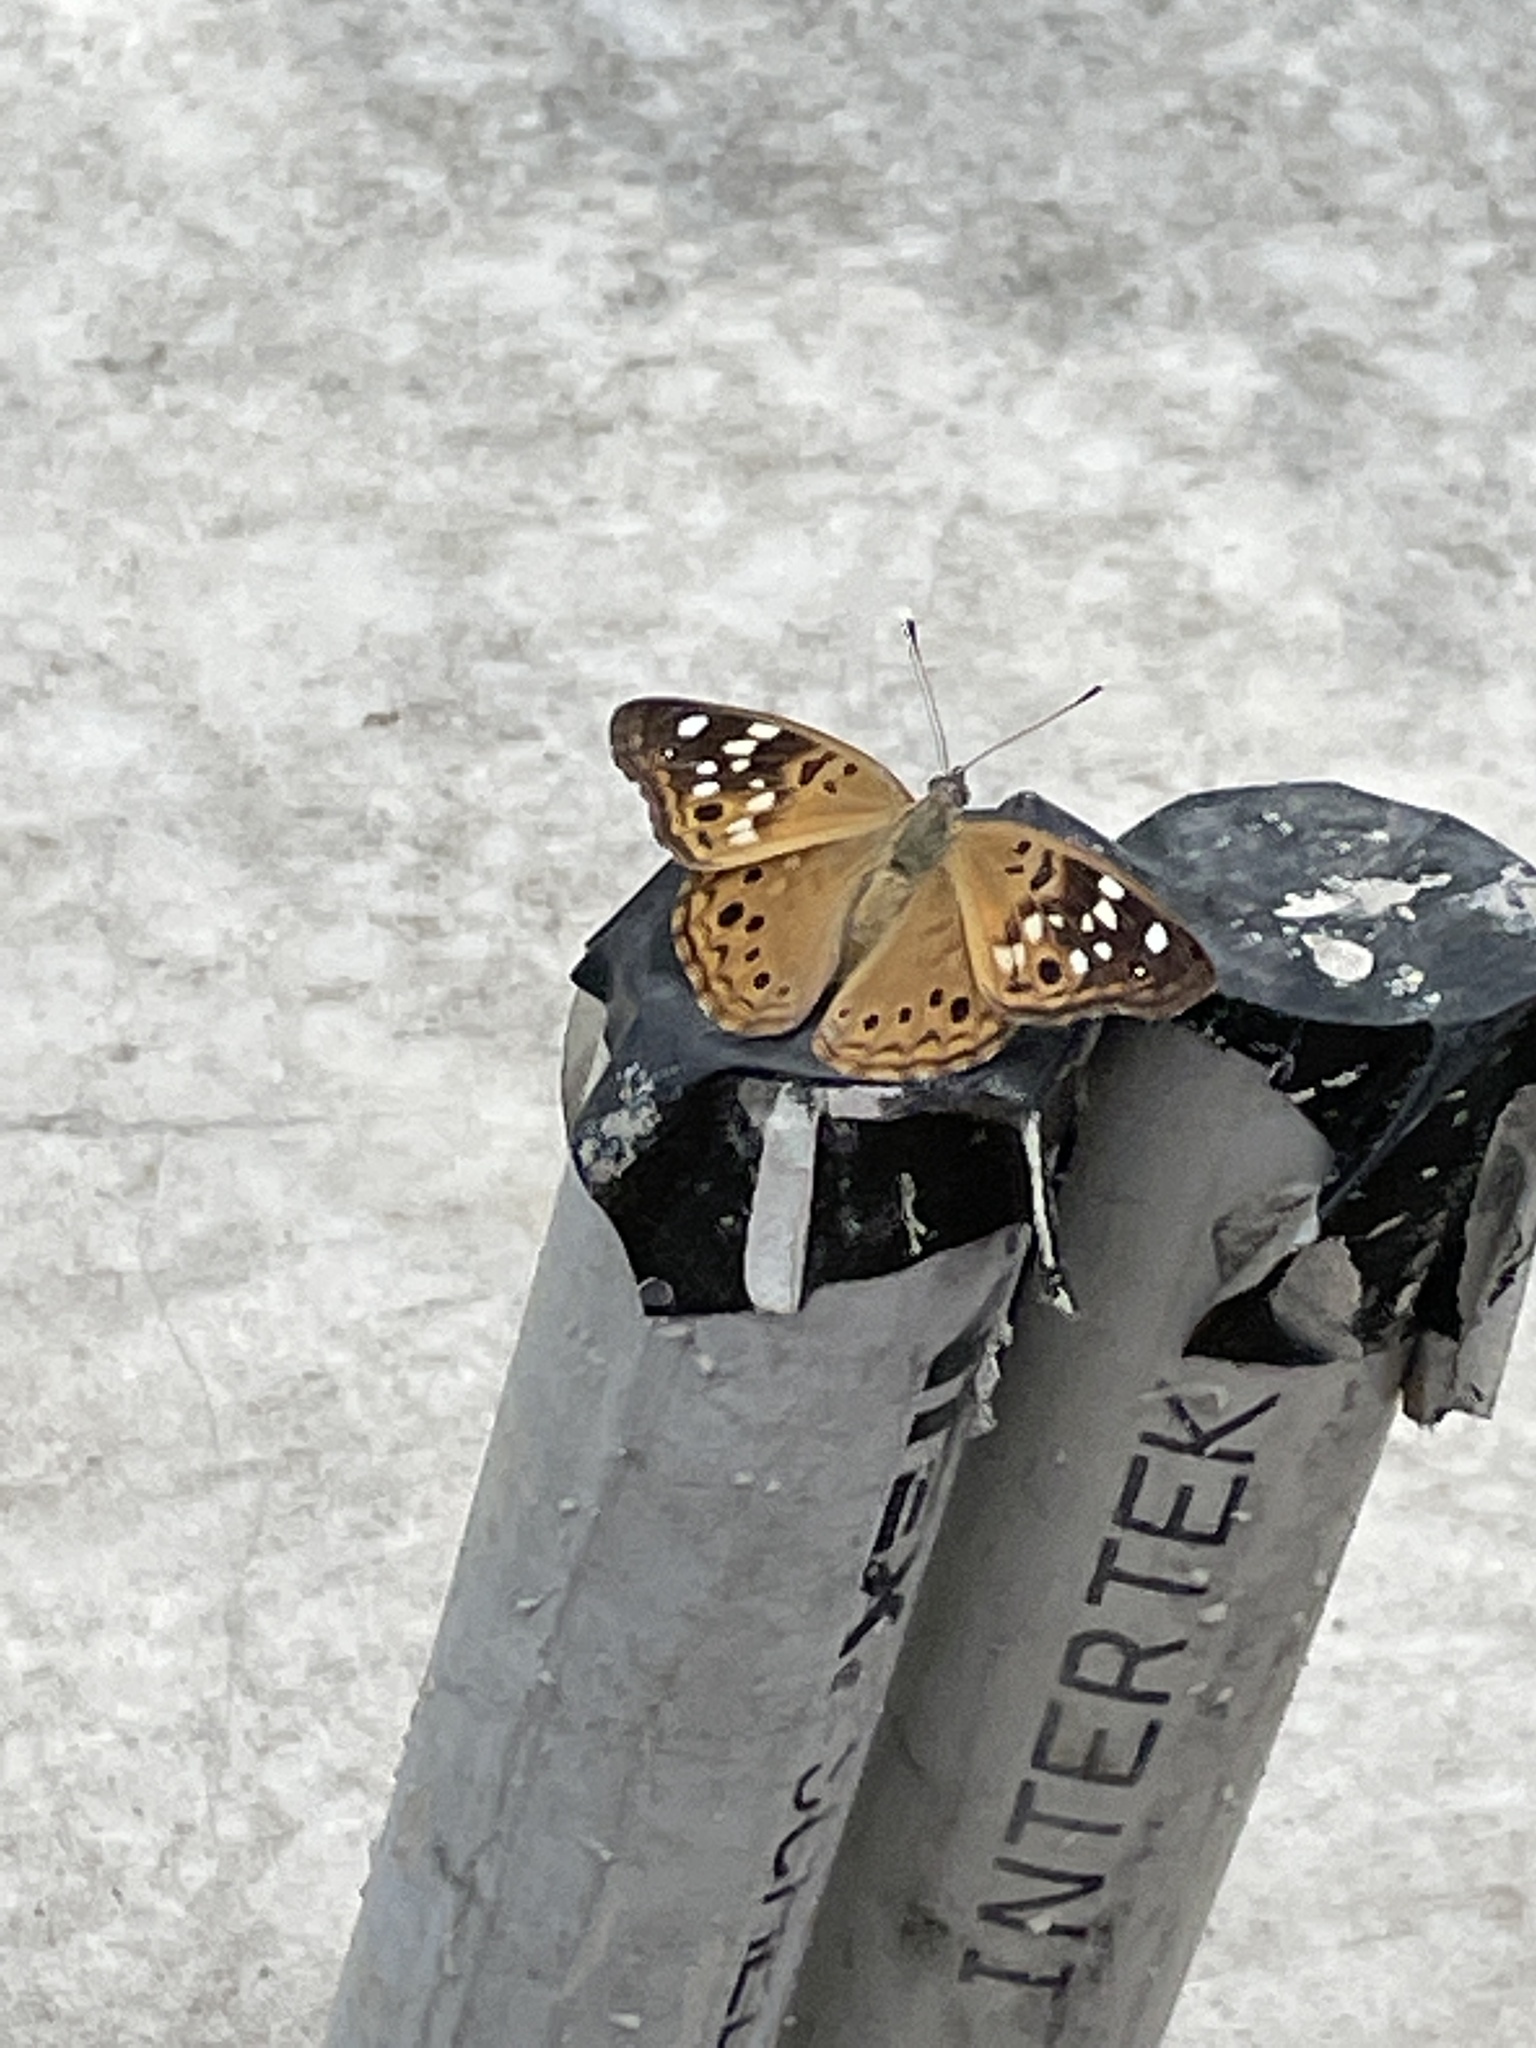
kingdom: Animalia
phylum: Arthropoda
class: Insecta
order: Lepidoptera
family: Nymphalidae
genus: Asterocampa
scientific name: Asterocampa celtis
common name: Hackberry emperor
